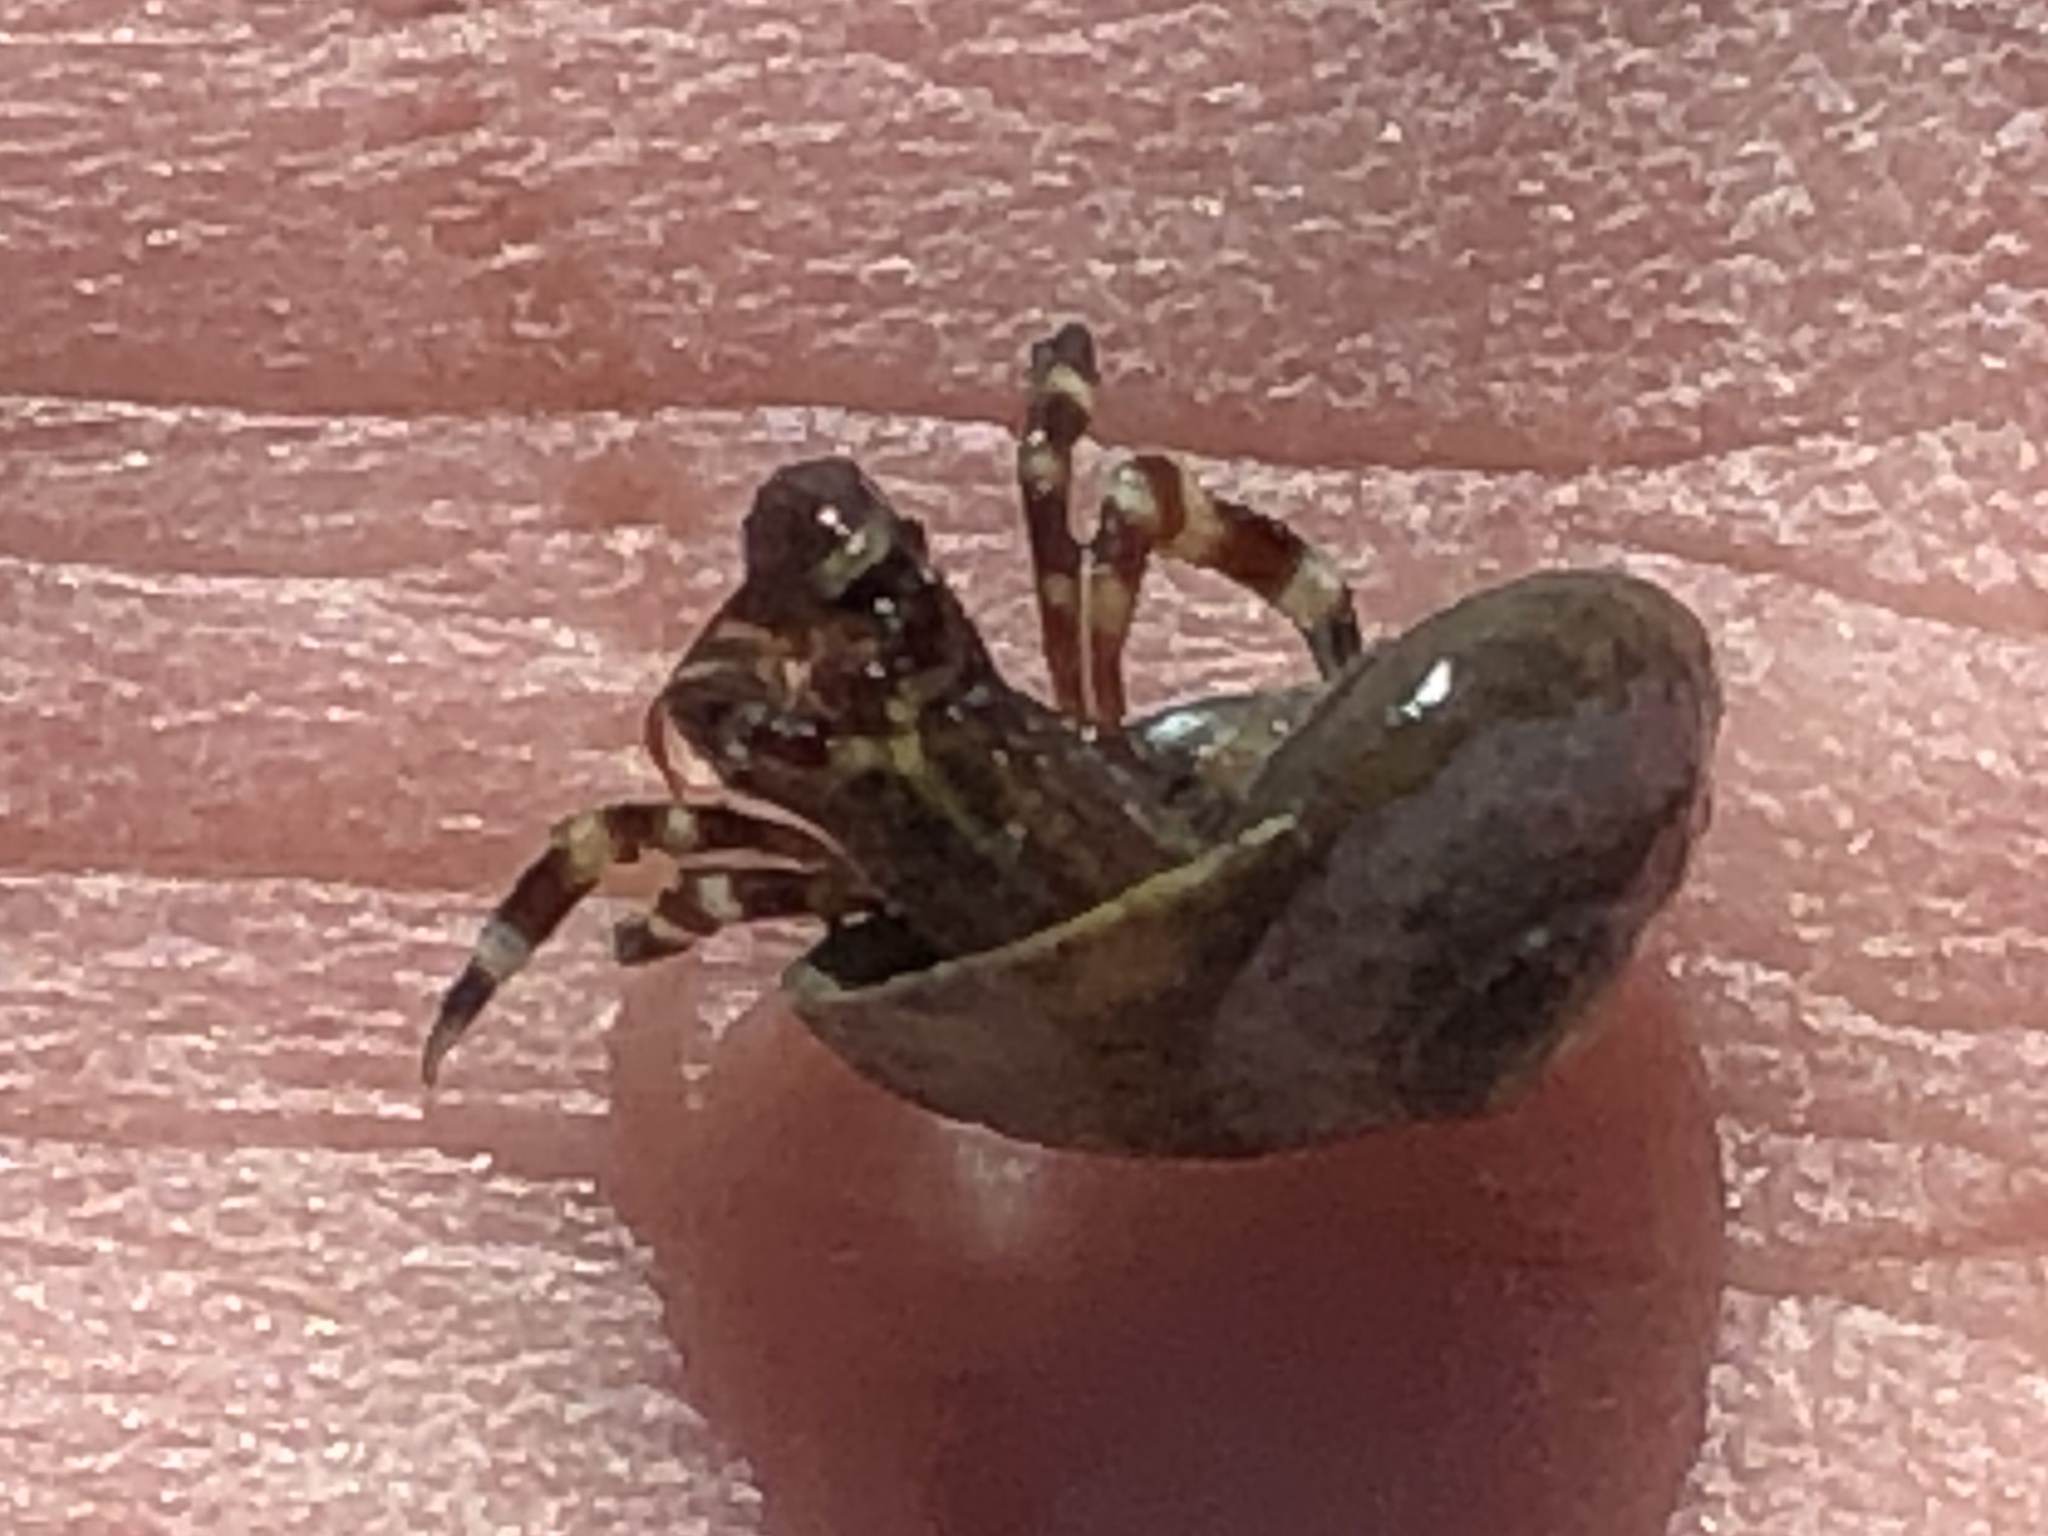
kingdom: Animalia
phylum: Arthropoda
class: Malacostraca
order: Decapoda
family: Paguridae
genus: Pagurus
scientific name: Pagurus samuelis
